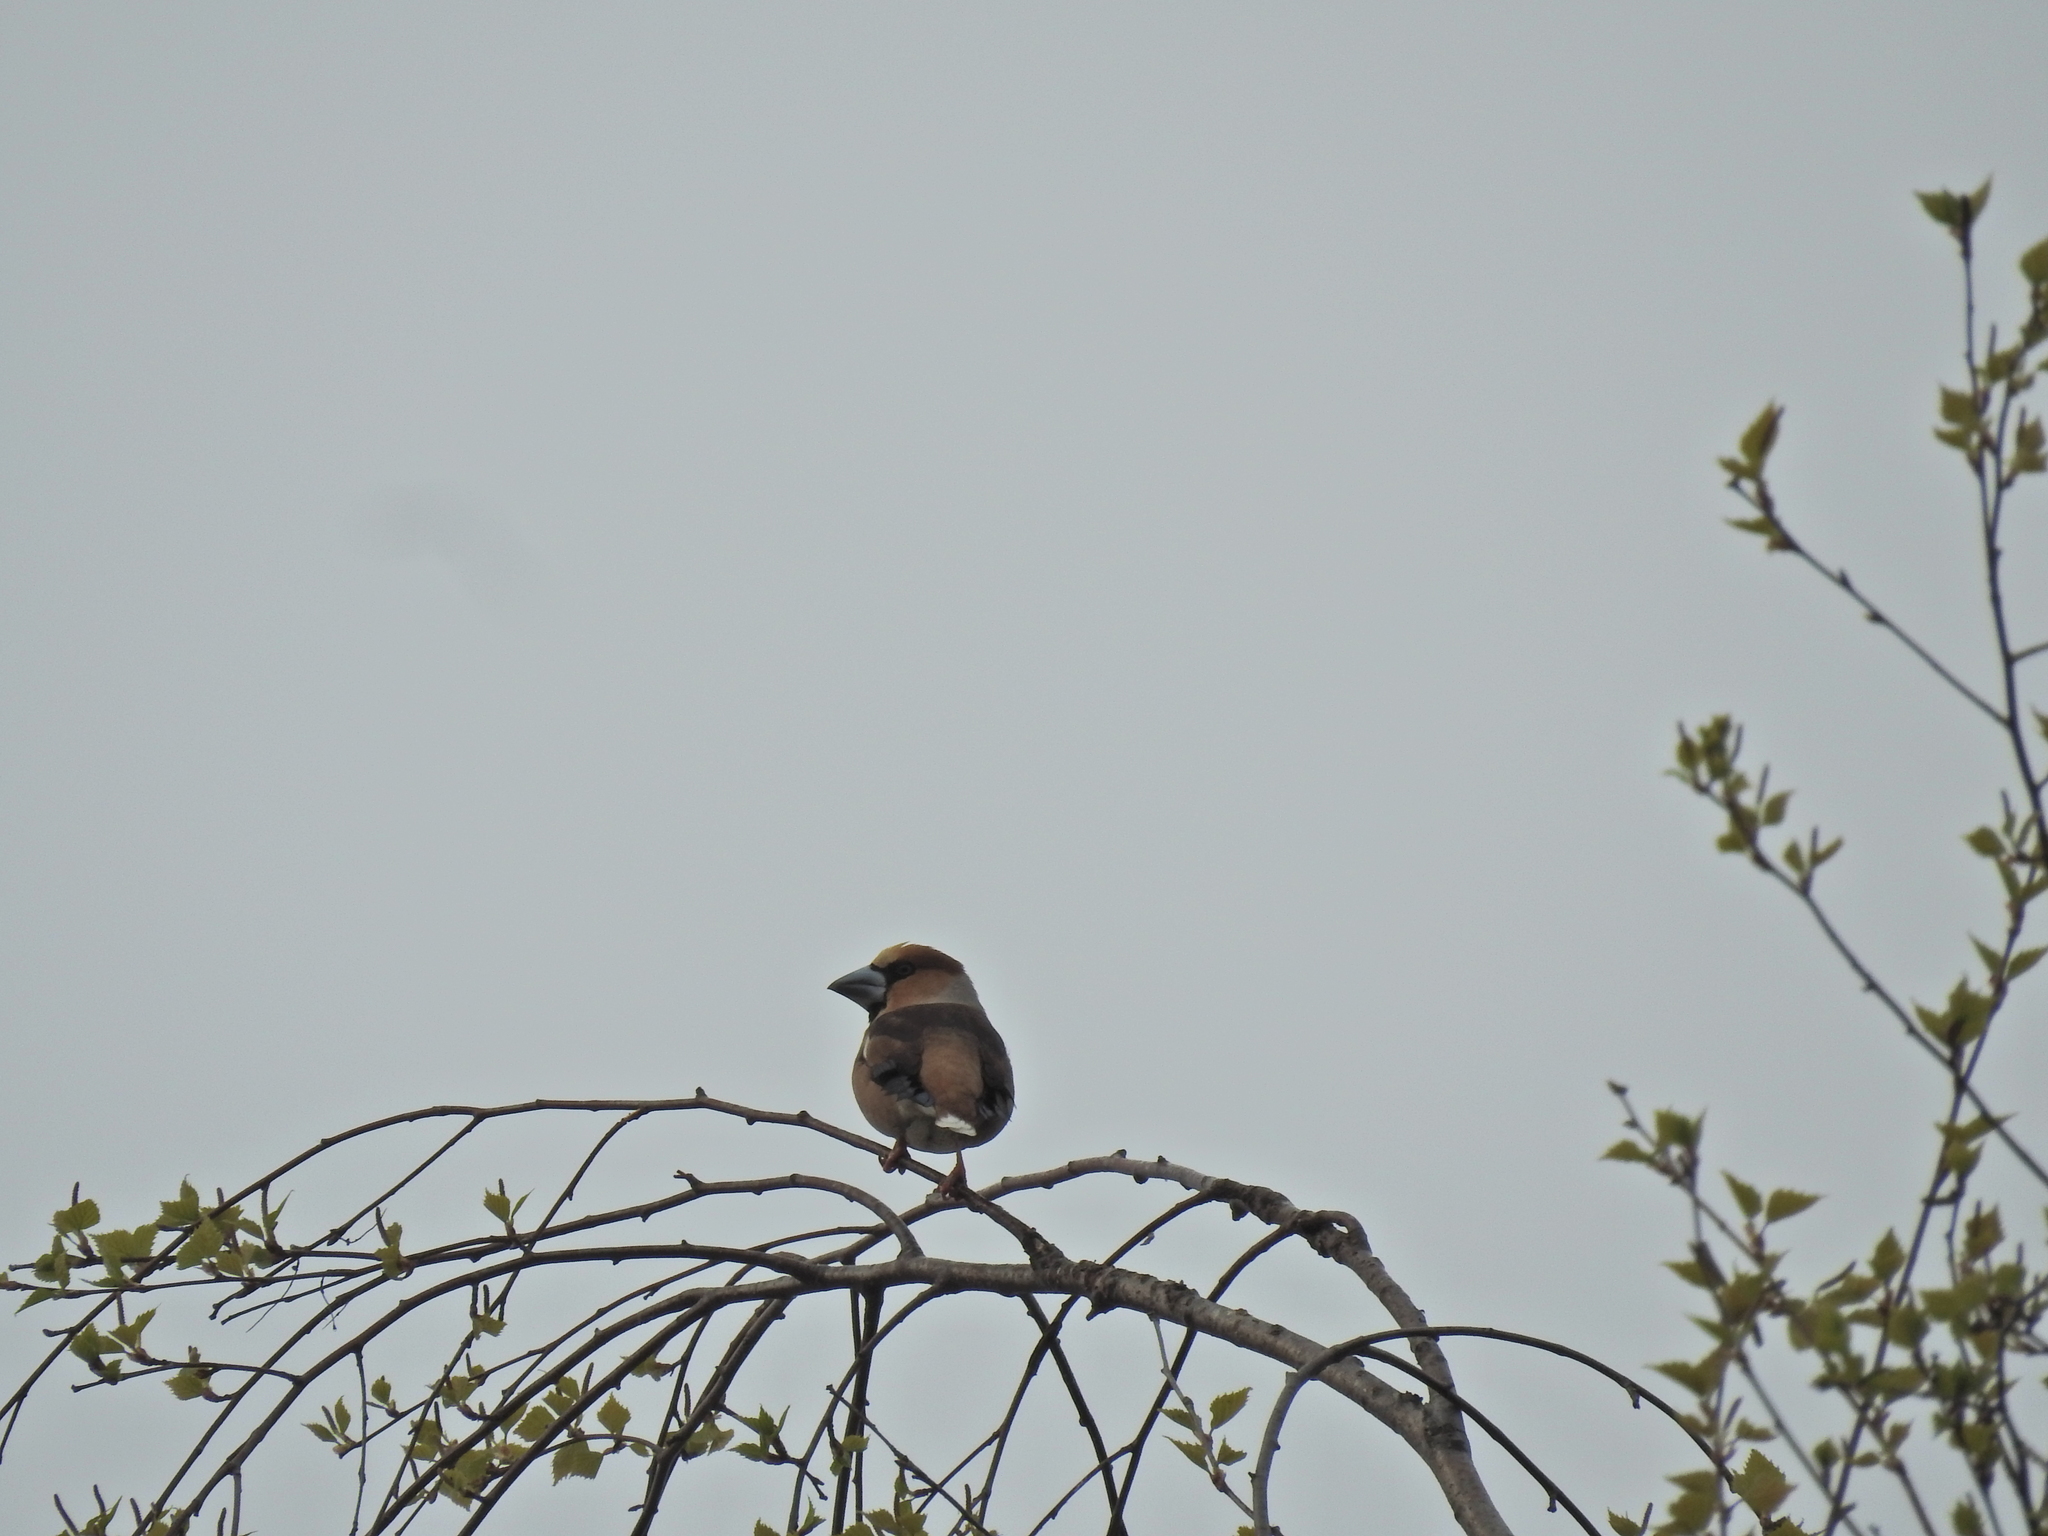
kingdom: Animalia
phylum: Chordata
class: Aves
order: Passeriformes
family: Fringillidae
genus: Coccothraustes
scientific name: Coccothraustes coccothraustes
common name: Hawfinch
